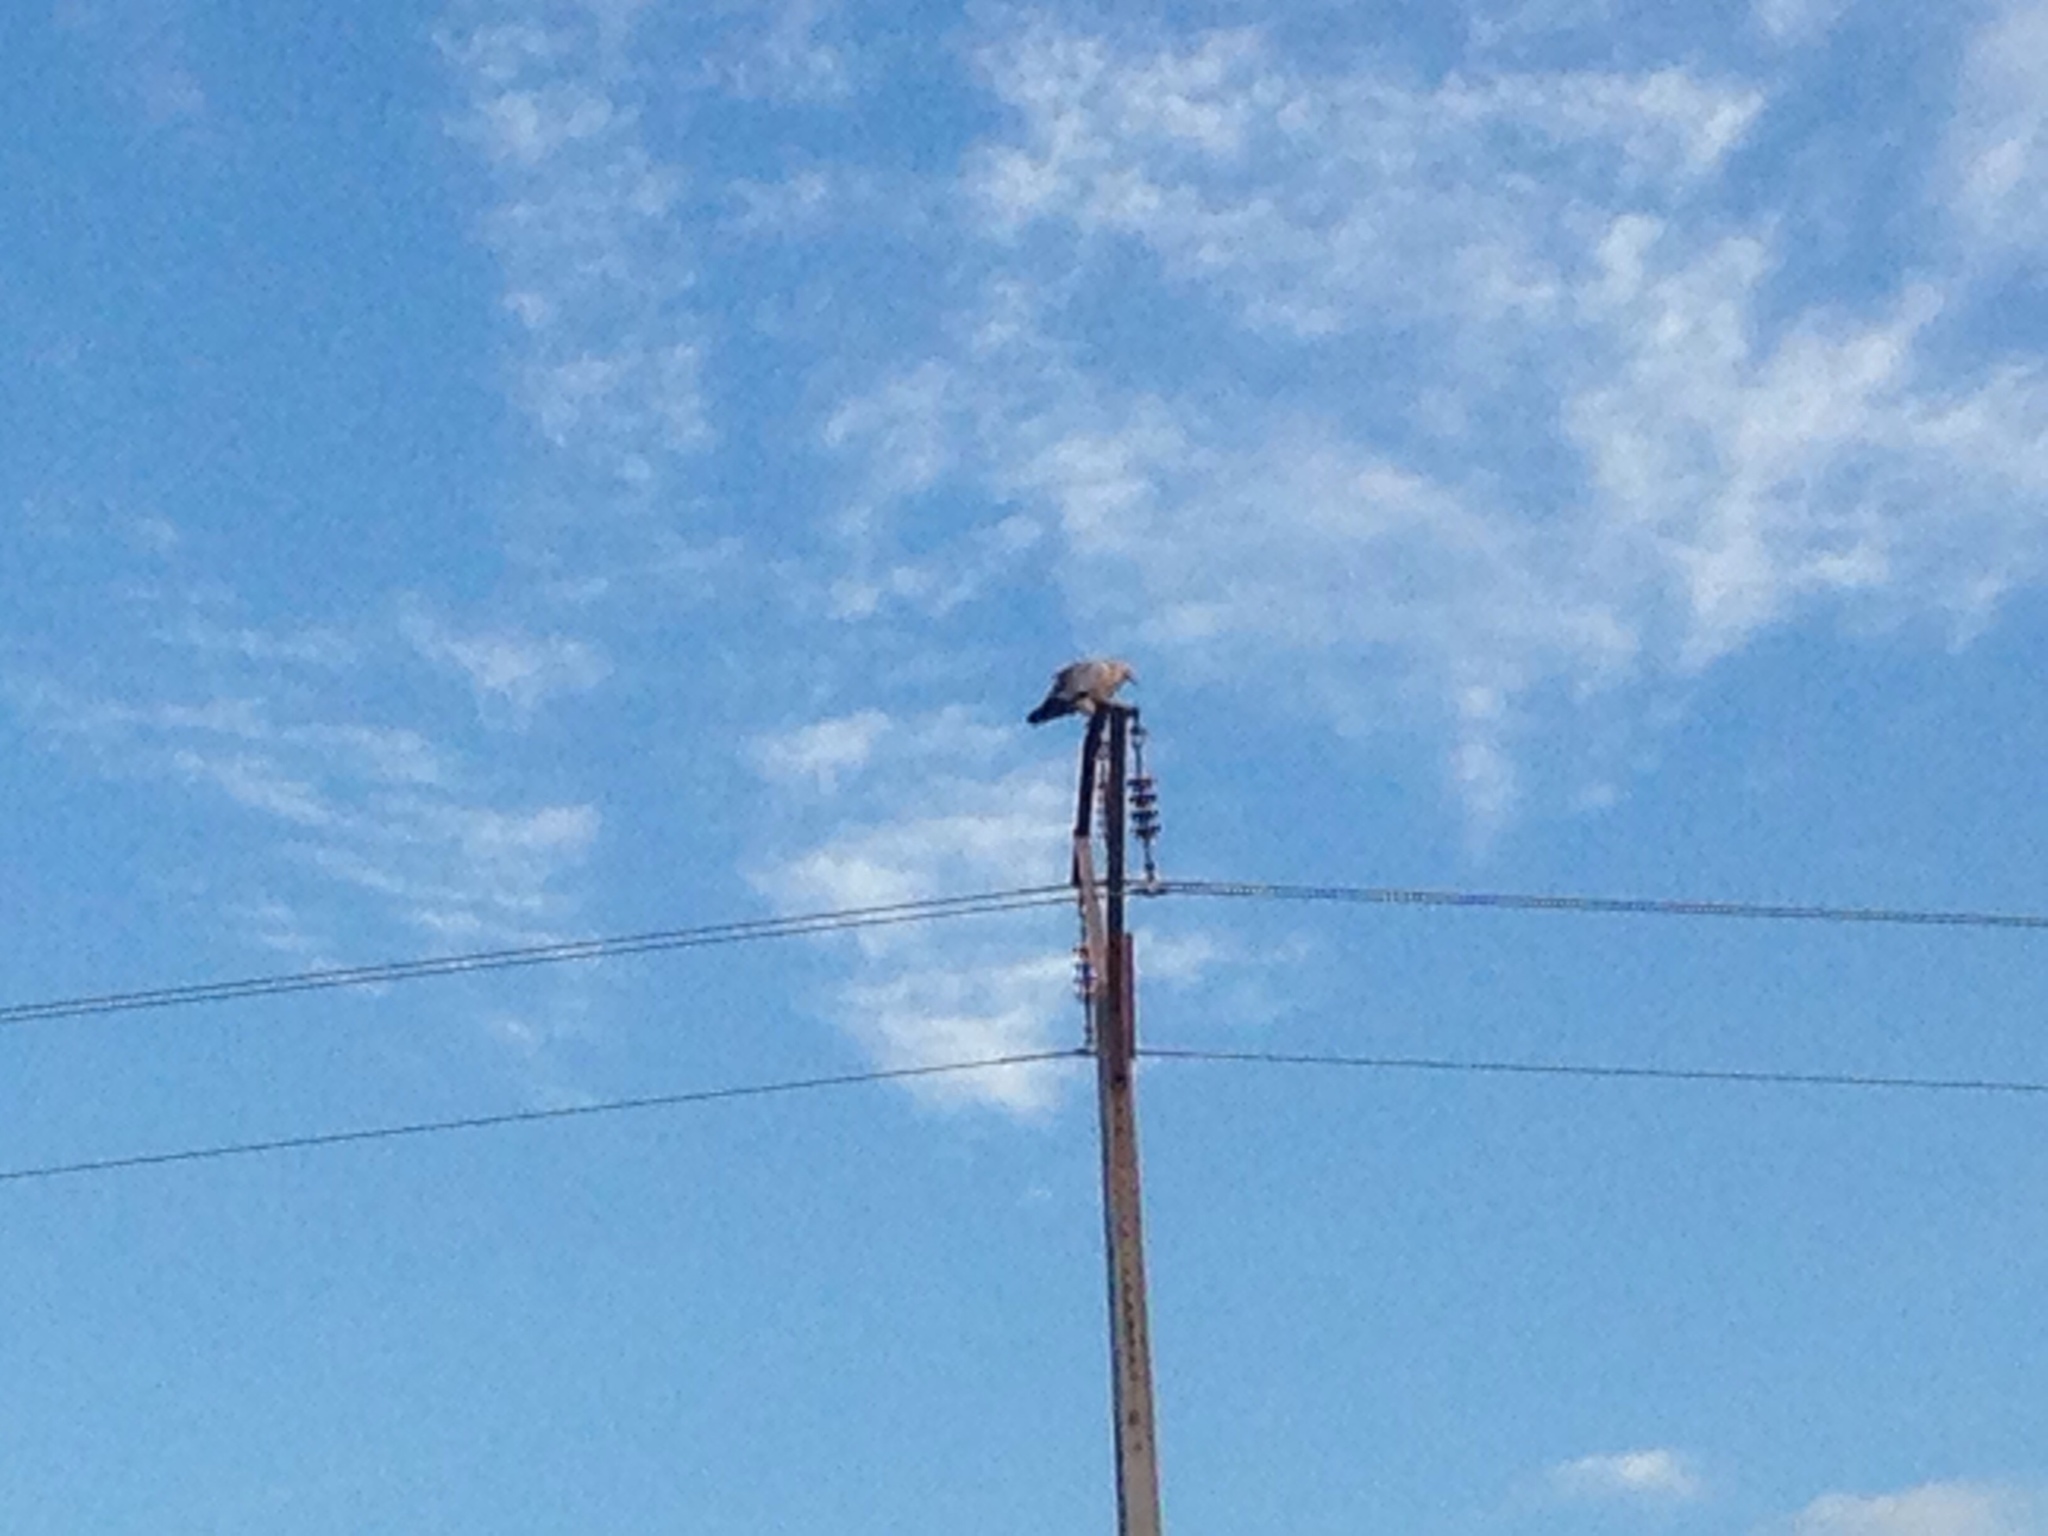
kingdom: Animalia
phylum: Chordata
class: Aves
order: Accipitriformes
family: Accipitridae
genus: Neophron
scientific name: Neophron percnopterus
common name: Egyptian vulture
